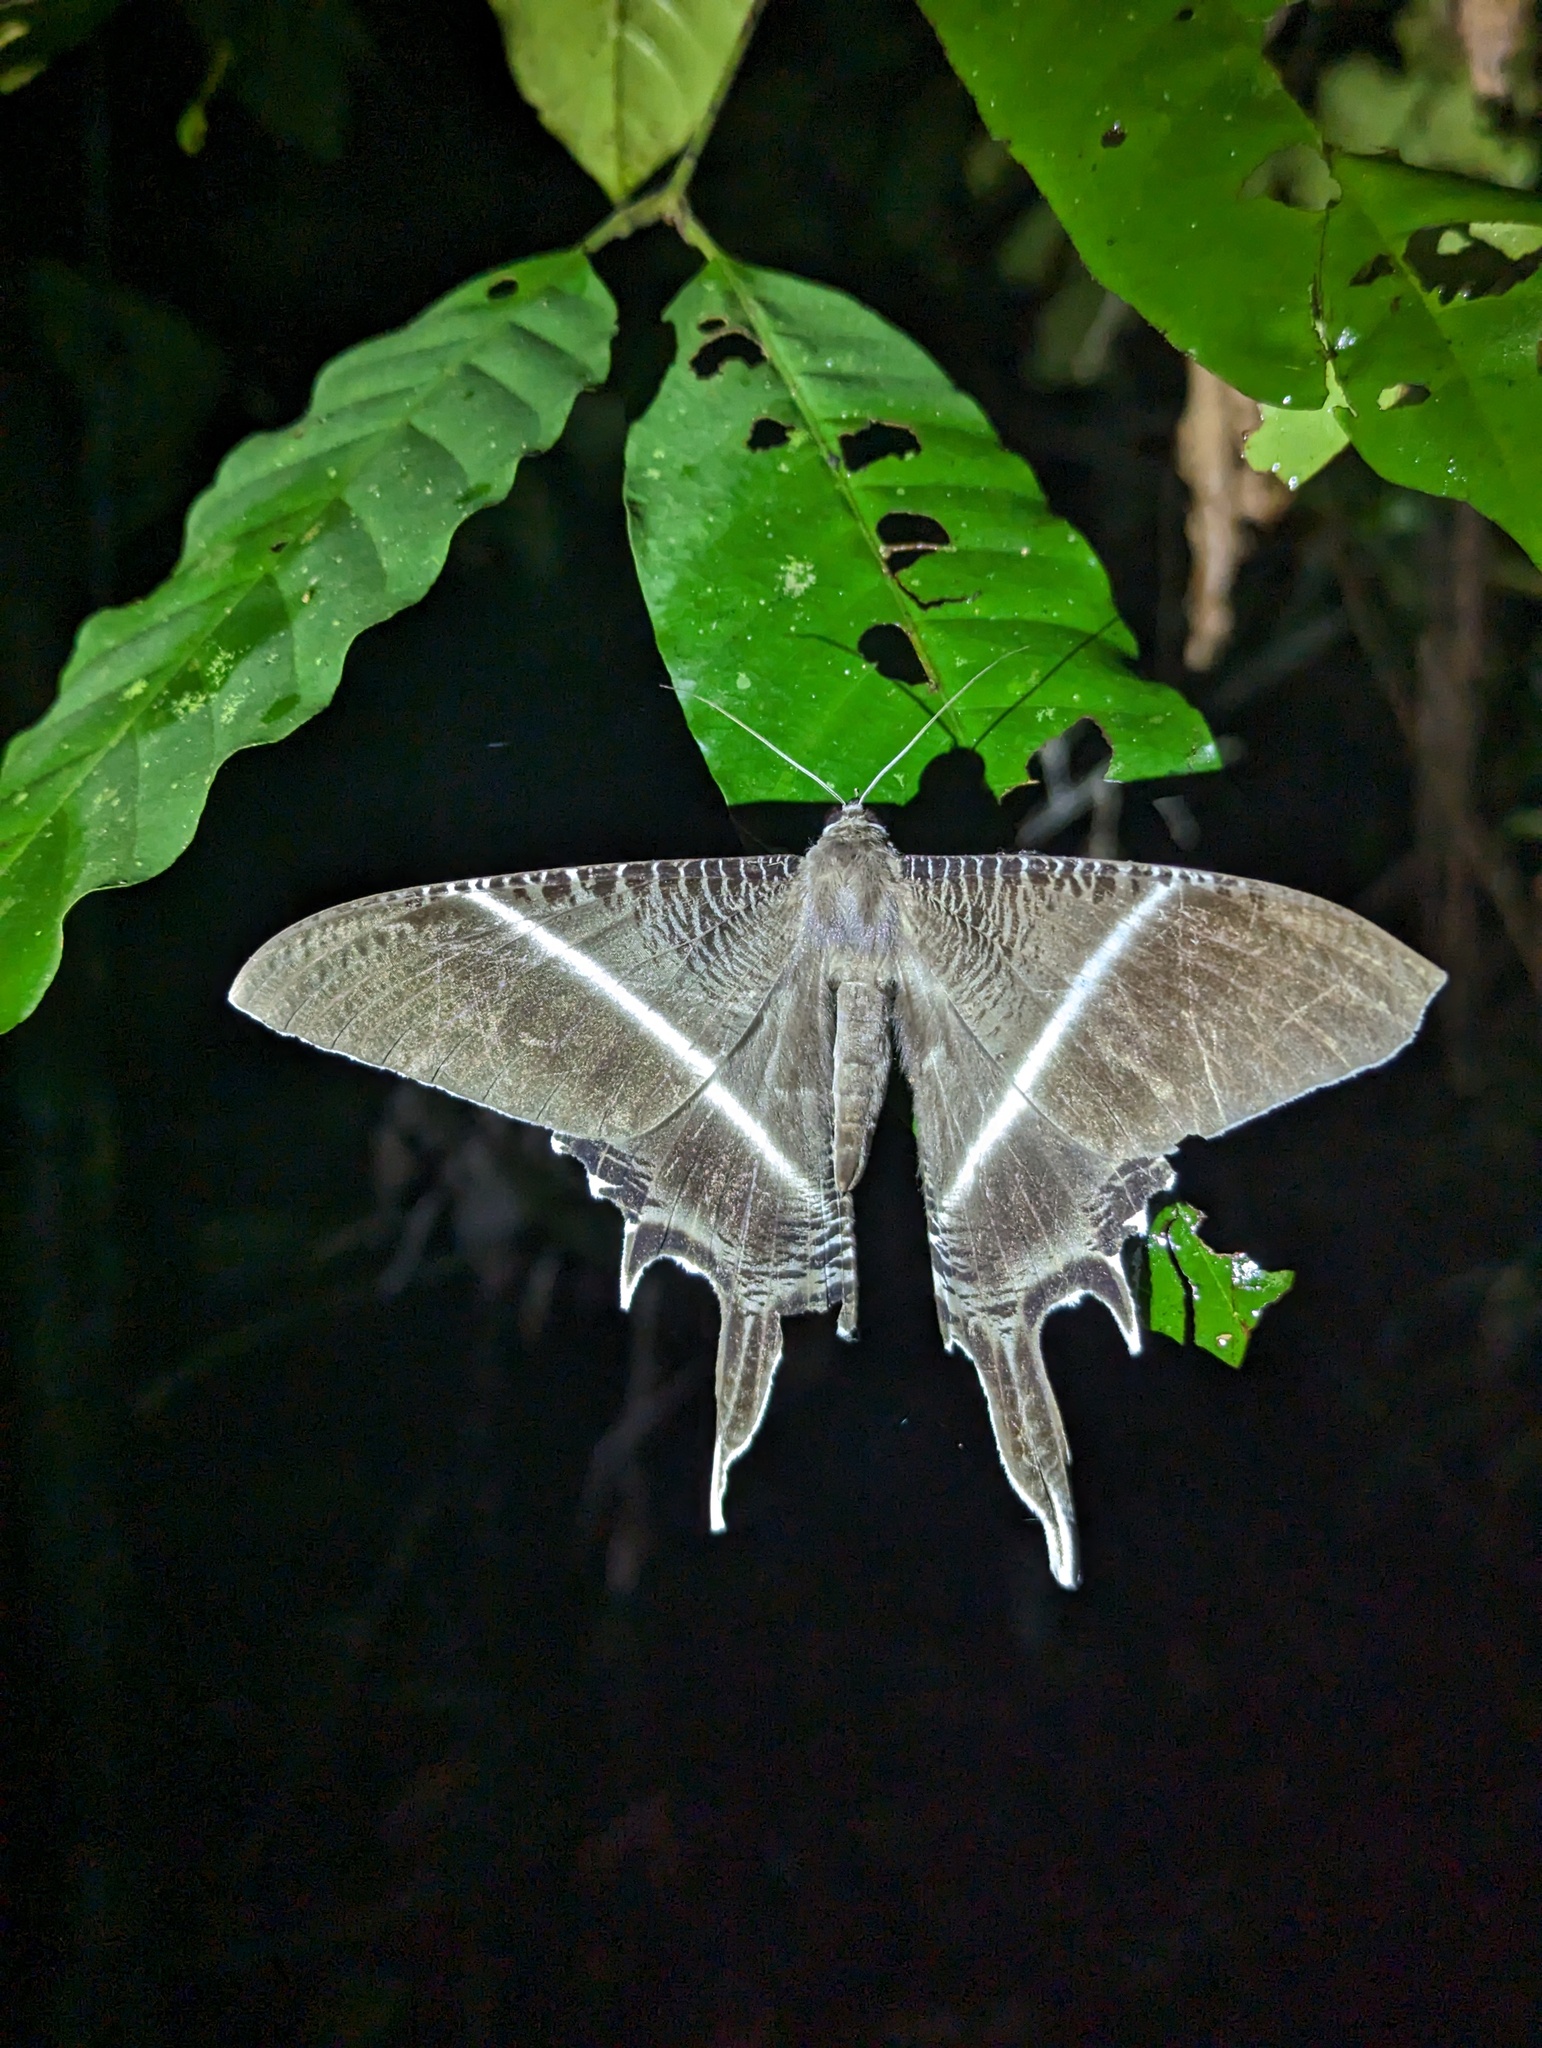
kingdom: Animalia
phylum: Arthropoda
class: Insecta
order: Lepidoptera
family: Uraniidae
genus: Lyssa
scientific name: Lyssa menoetius
